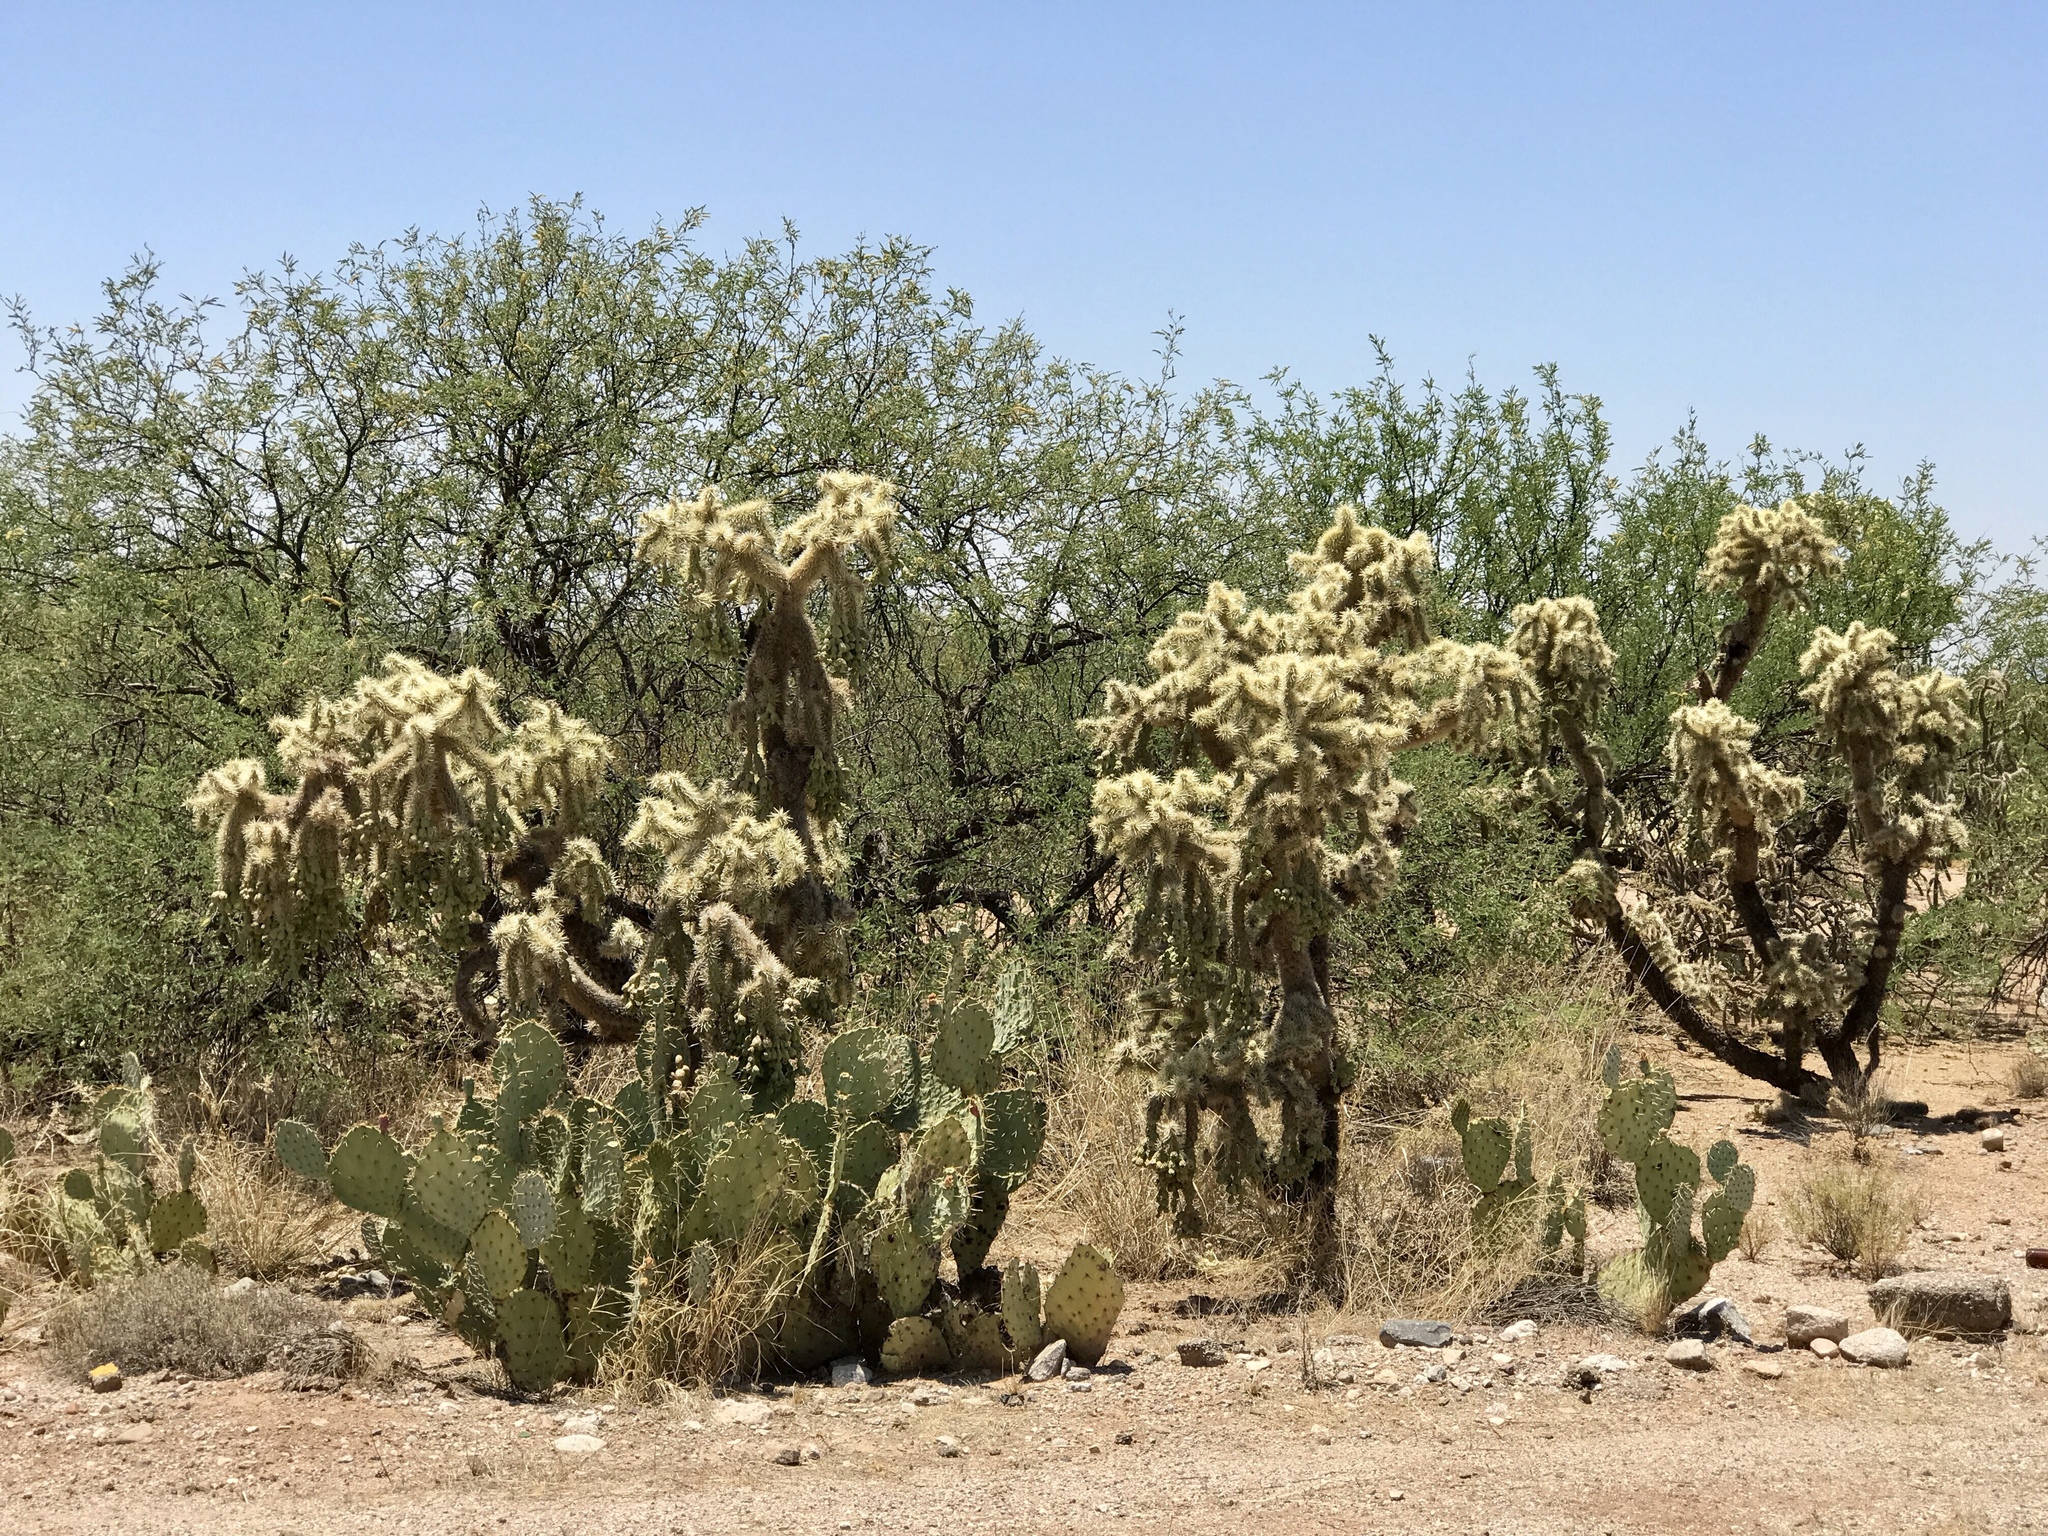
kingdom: Plantae
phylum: Tracheophyta
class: Magnoliopsida
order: Caryophyllales
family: Cactaceae
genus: Cylindropuntia
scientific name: Cylindropuntia fulgida
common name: Jumping cholla
